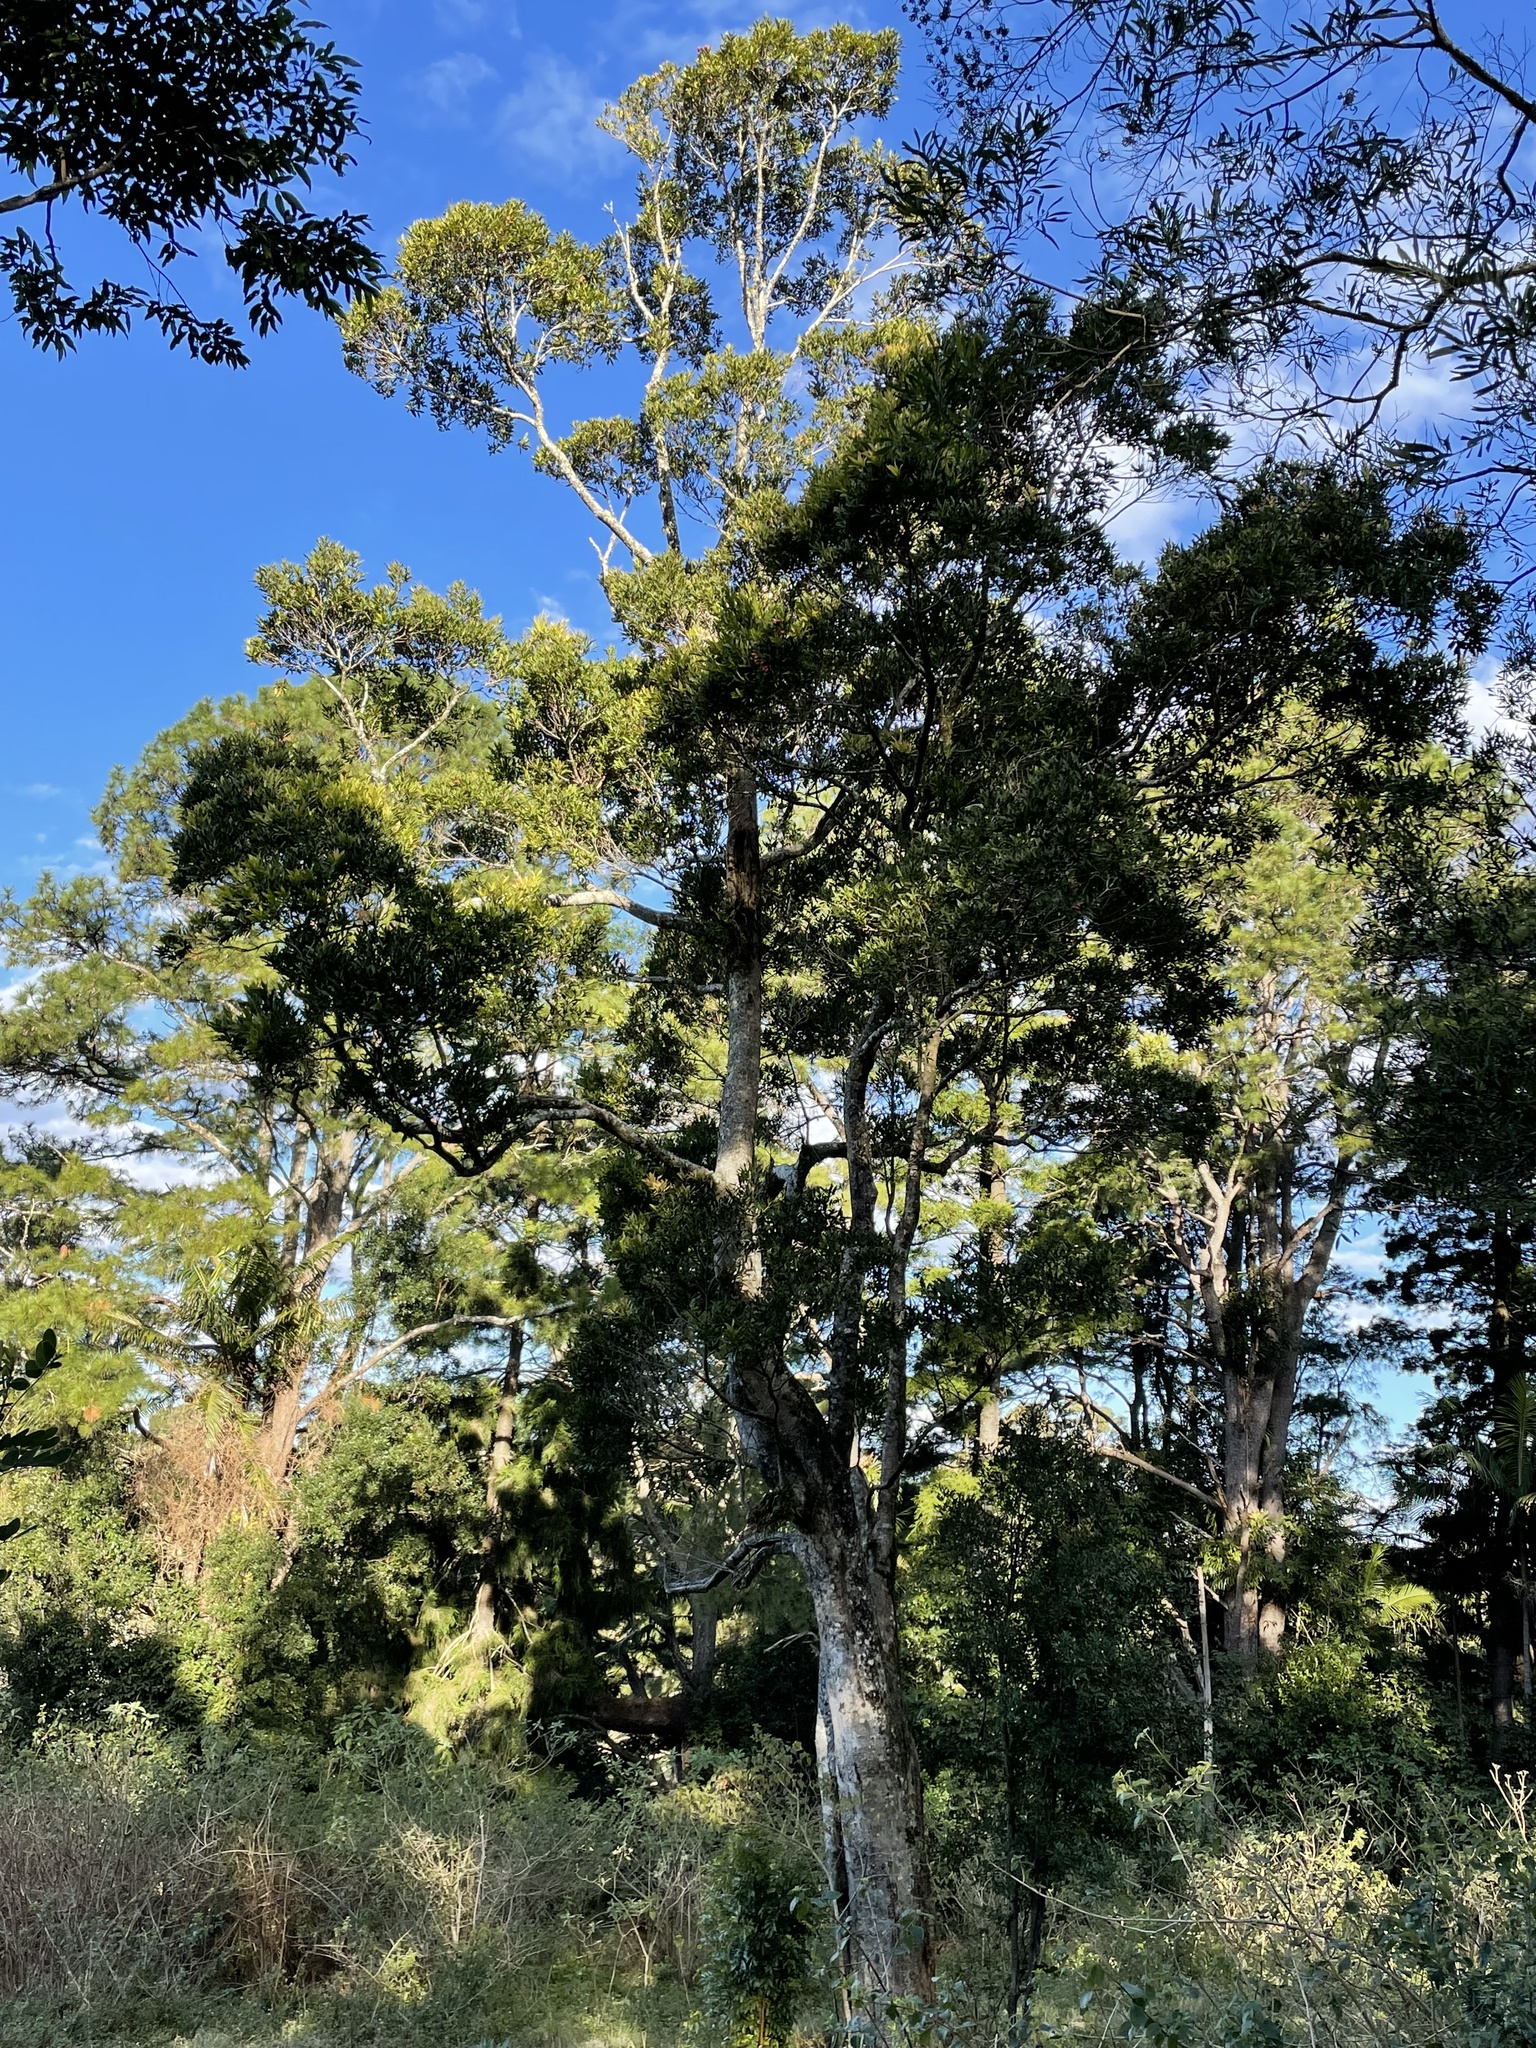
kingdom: Plantae
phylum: Tracheophyta
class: Magnoliopsida
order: Myrtales
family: Myrtaceae
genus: Syzygium
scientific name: Syzygium ingens
